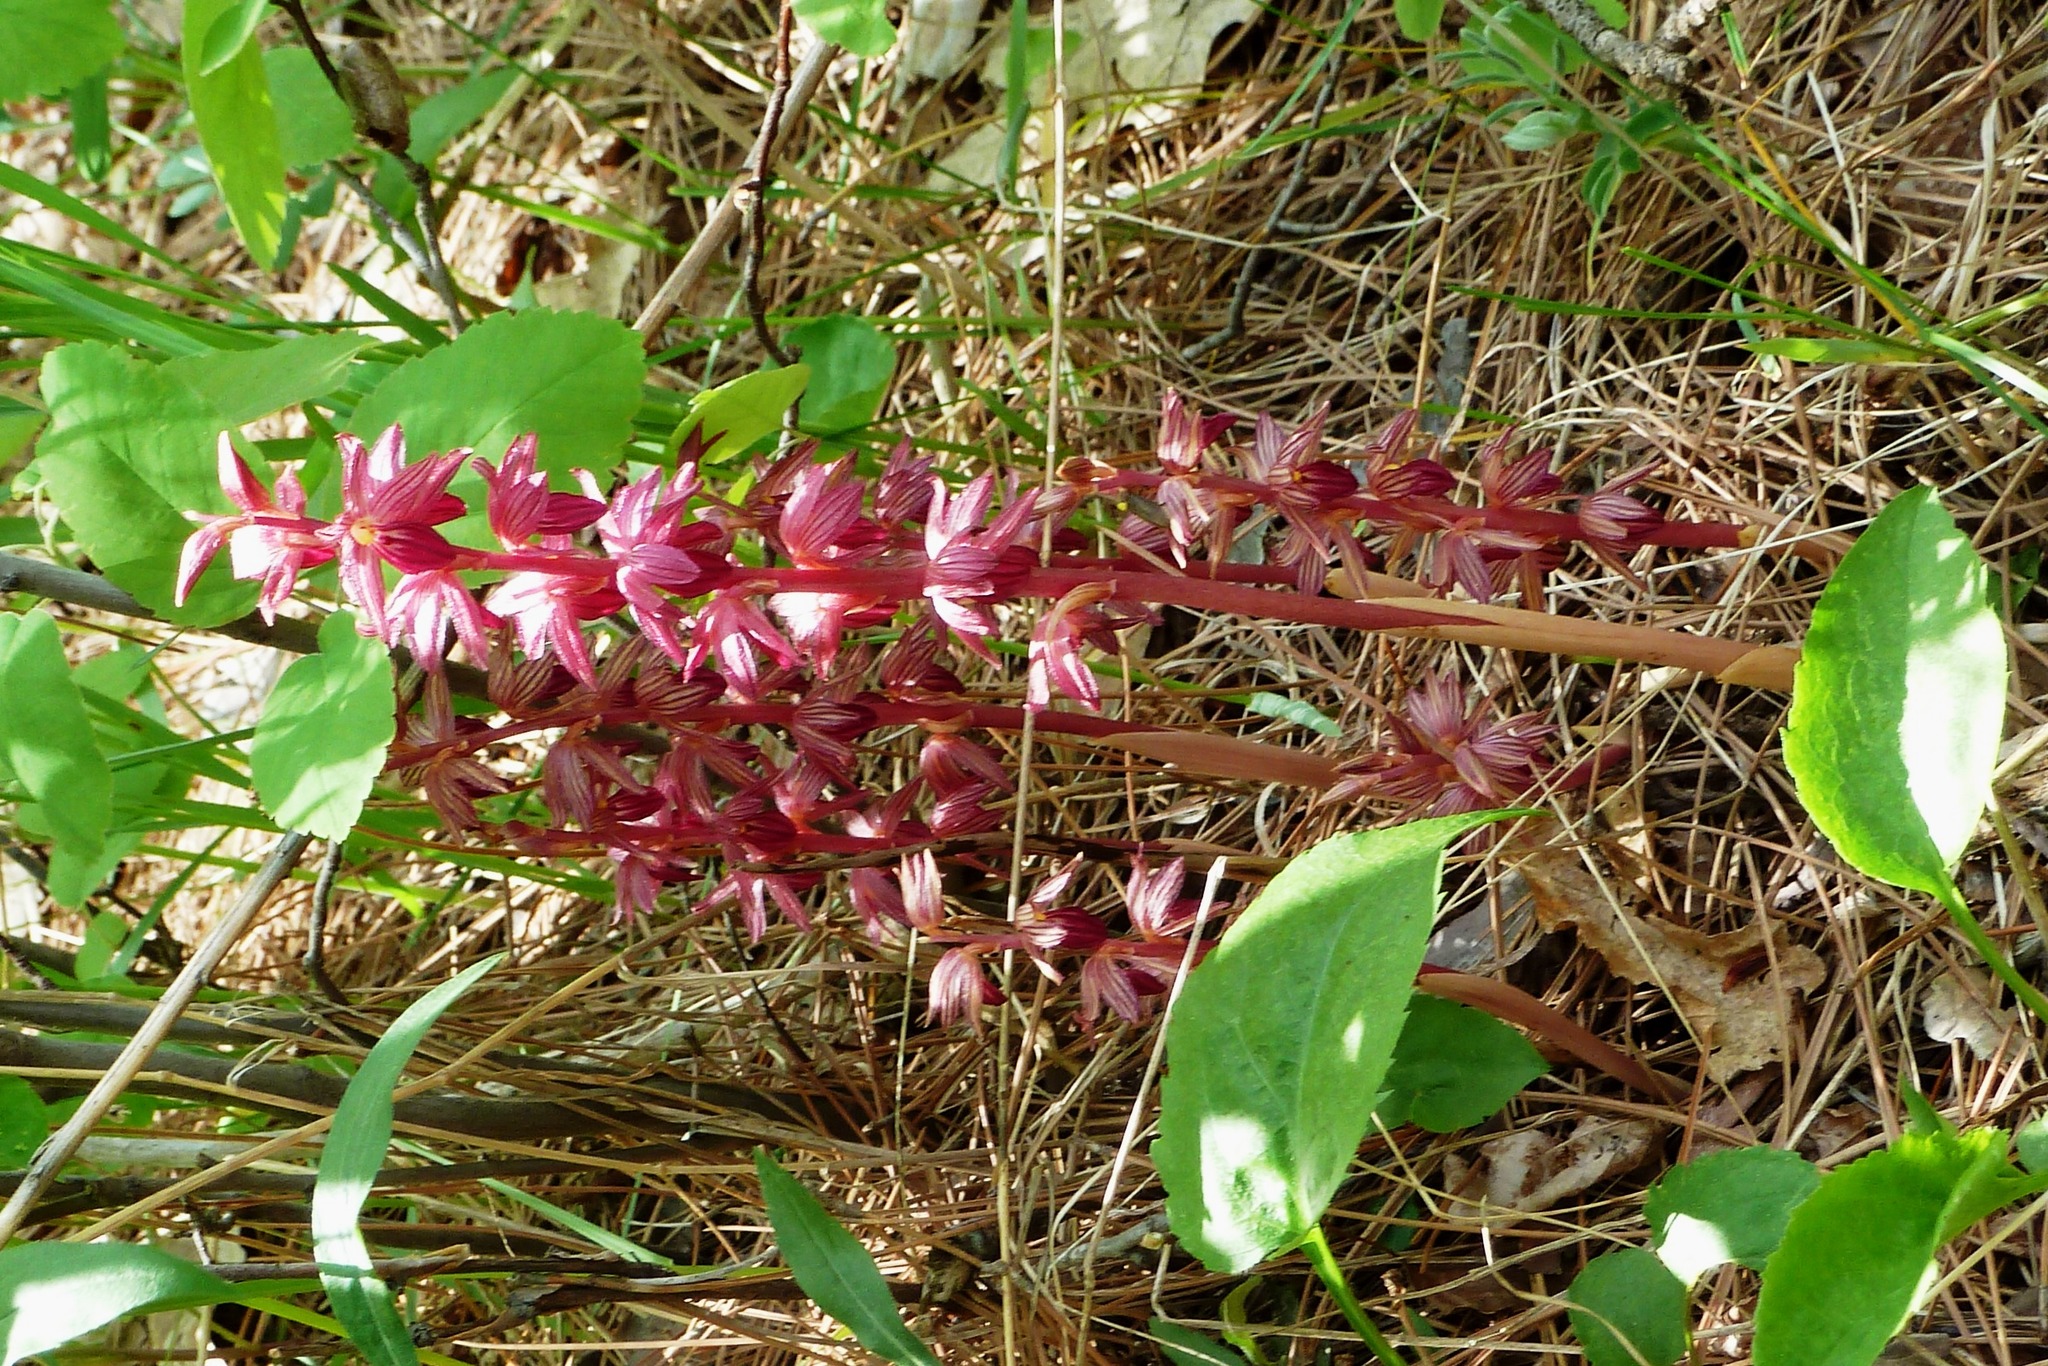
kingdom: Plantae
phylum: Tracheophyta
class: Liliopsida
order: Asparagales
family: Orchidaceae
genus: Corallorhiza
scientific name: Corallorhiza striata
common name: Hooded coralroot
